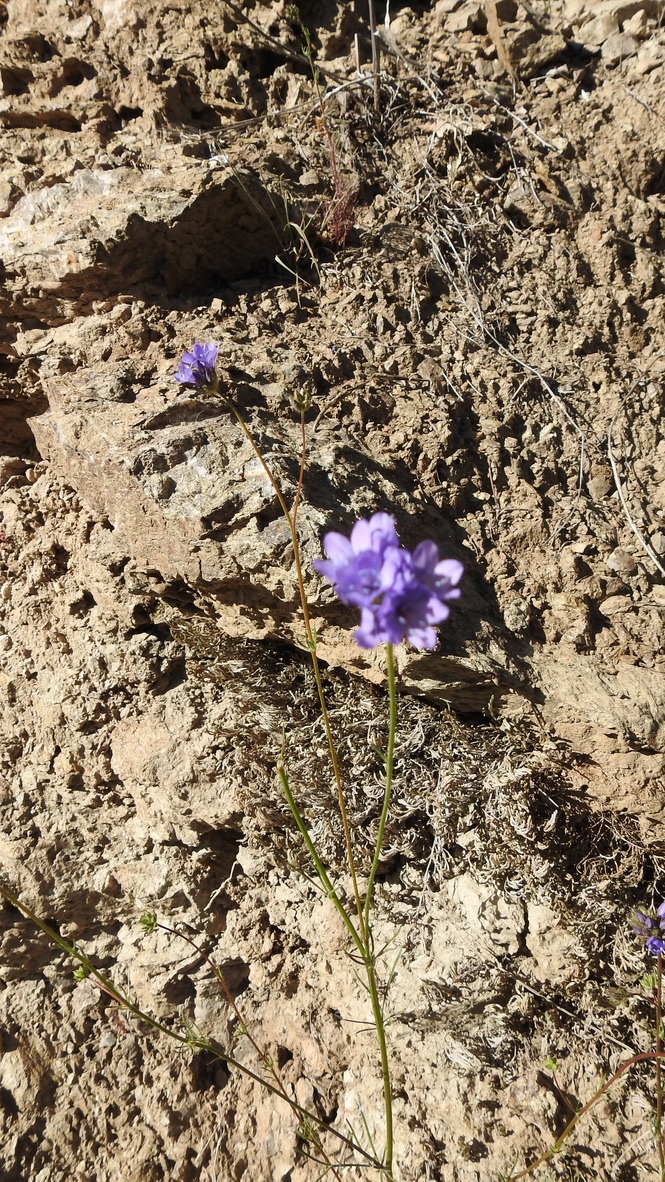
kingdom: Plantae
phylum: Tracheophyta
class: Liliopsida
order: Asparagales
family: Asparagaceae
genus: Dipterostemon
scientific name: Dipterostemon capitatus
